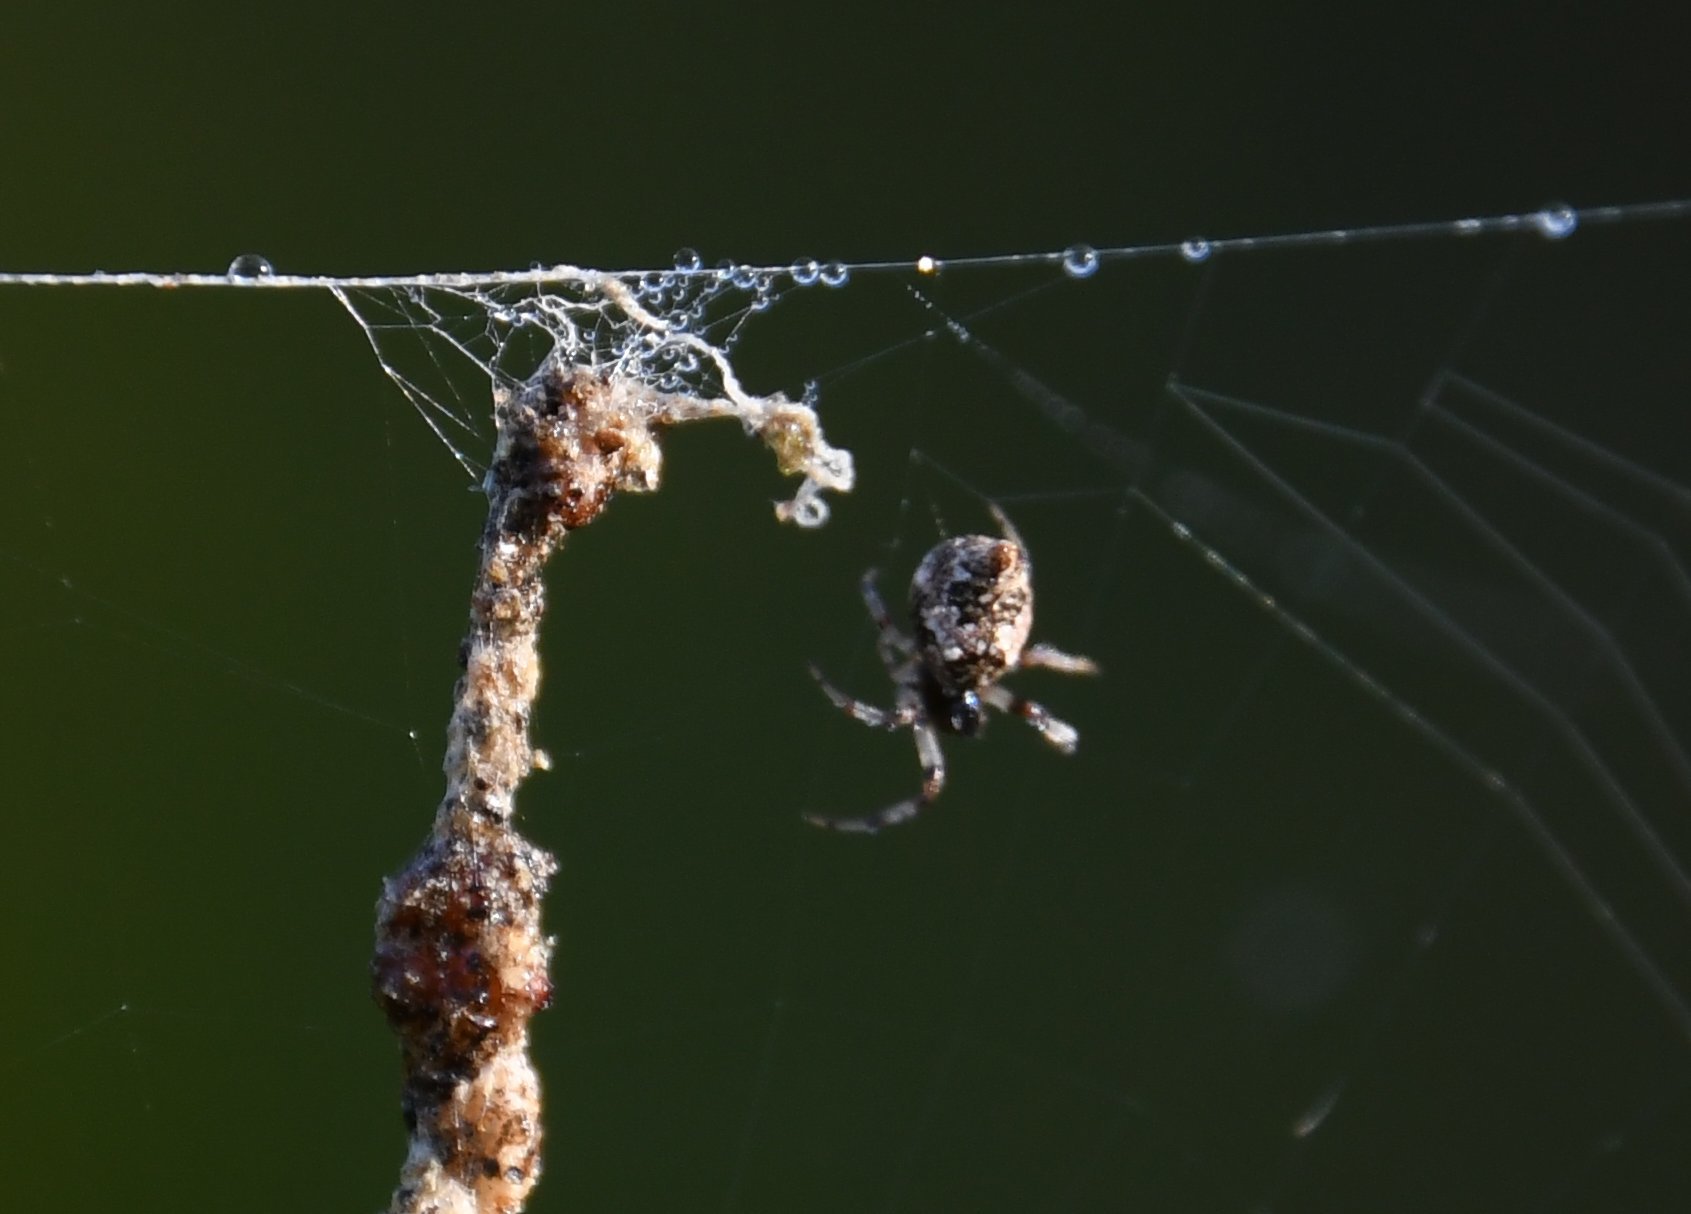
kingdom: Animalia
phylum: Arthropoda
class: Arachnida
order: Araneae
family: Araneidae
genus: Cyclosa
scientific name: Cyclosa turbinata
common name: Orb weavers
